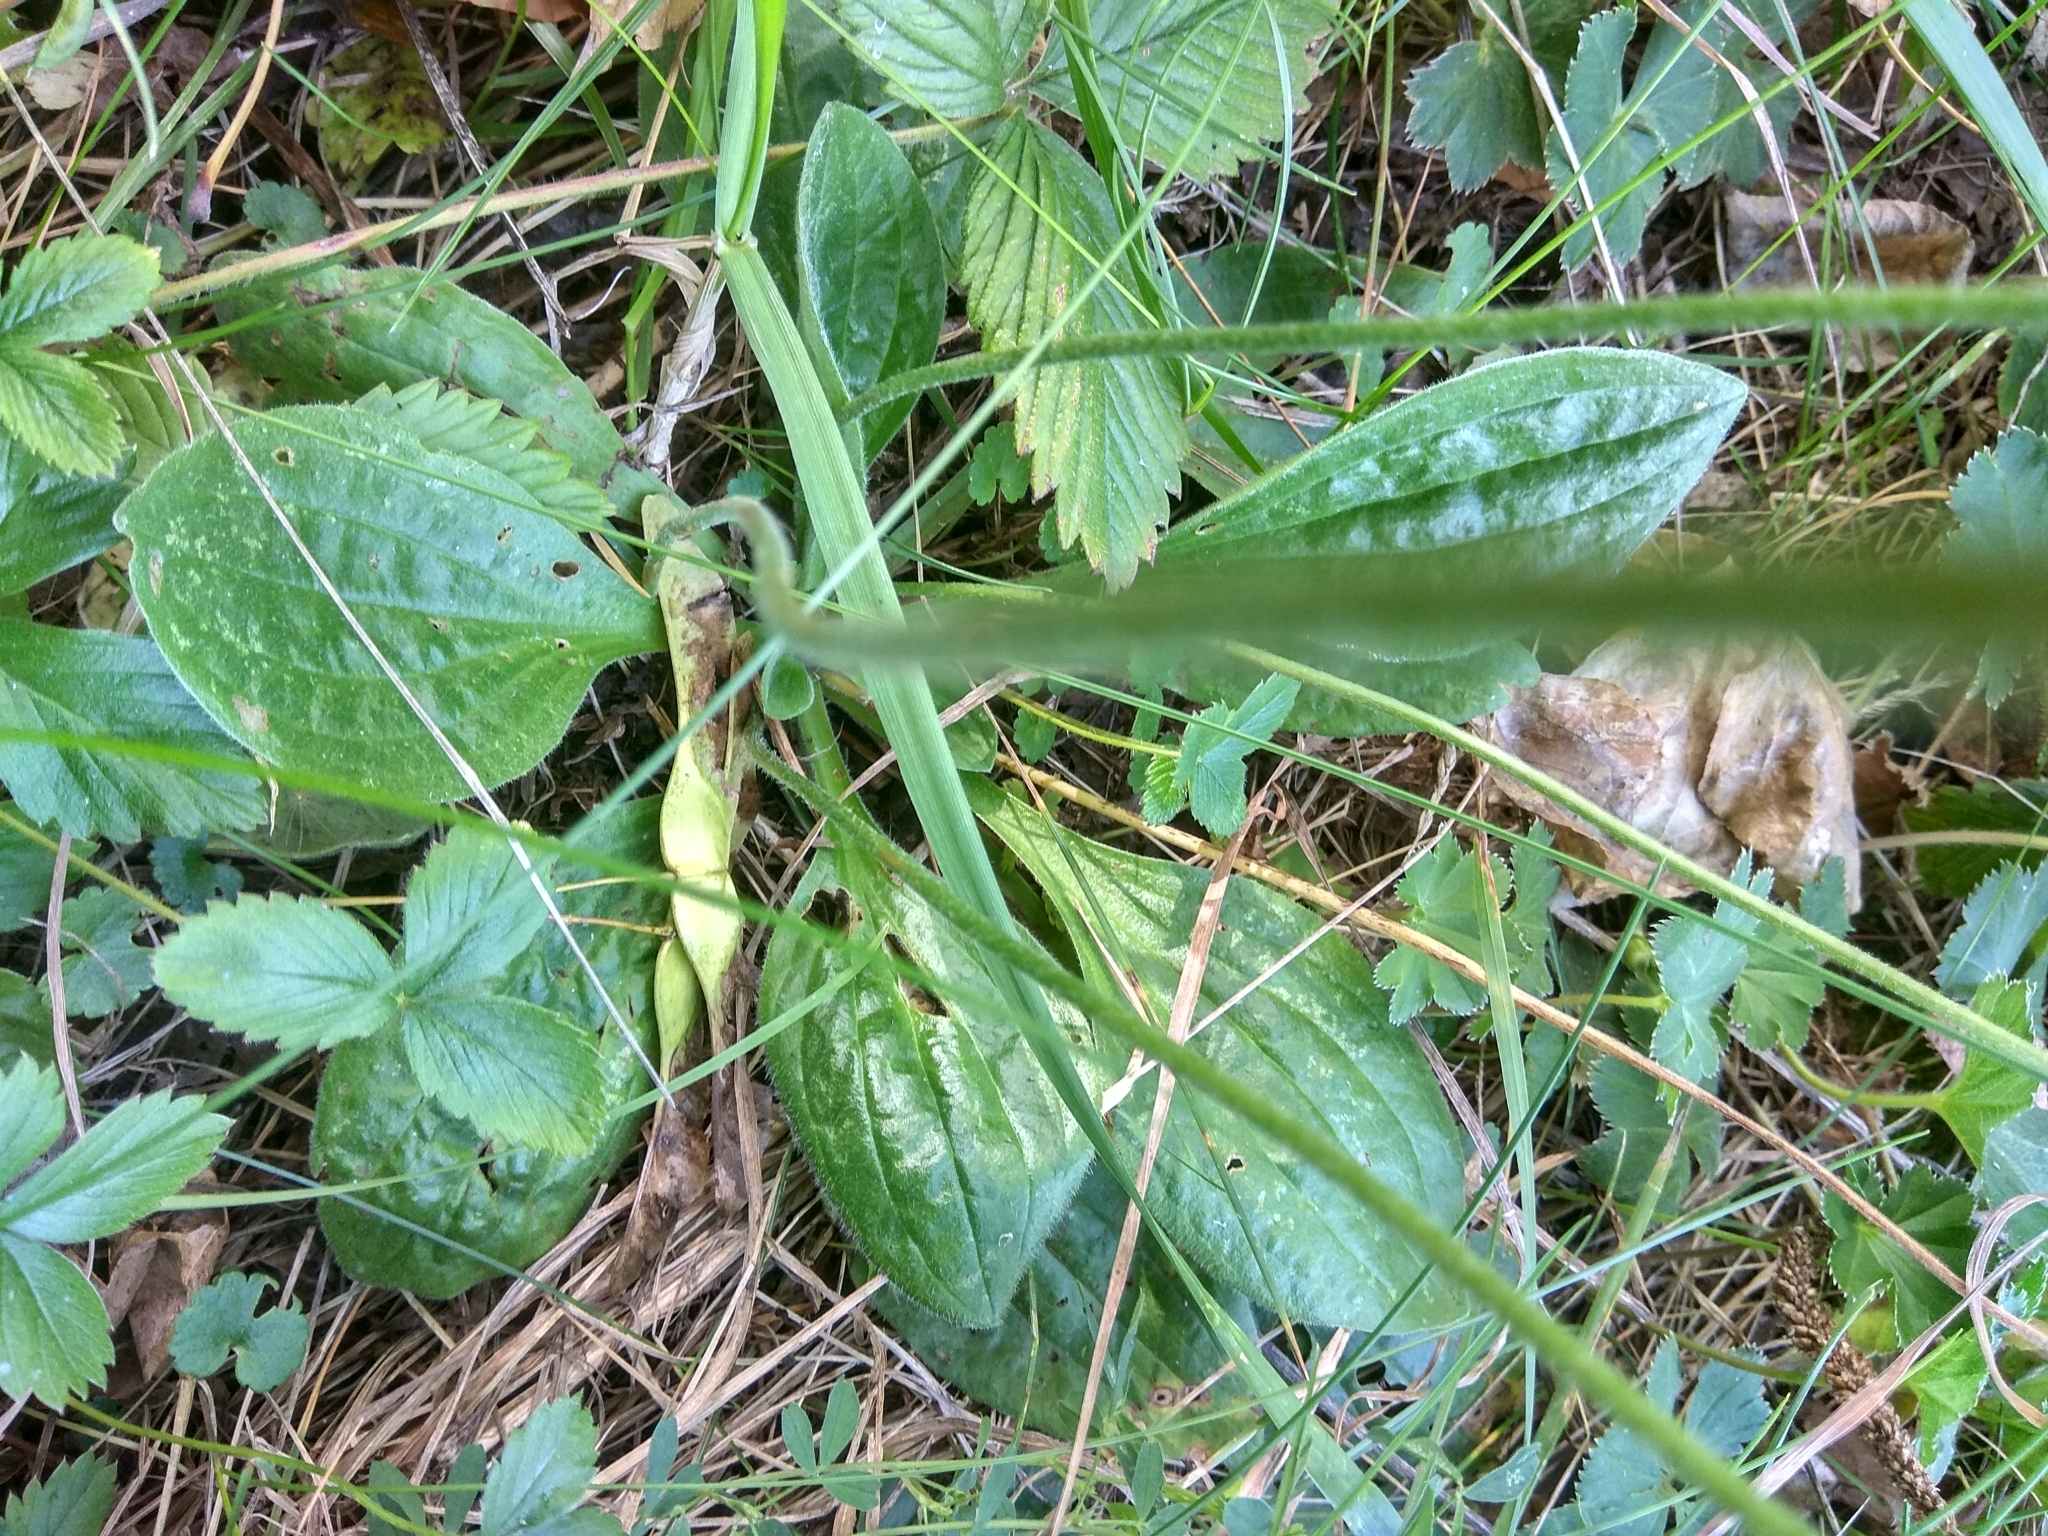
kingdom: Plantae
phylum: Tracheophyta
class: Magnoliopsida
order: Lamiales
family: Plantaginaceae
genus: Plantago
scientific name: Plantago media
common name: Hoary plantain
